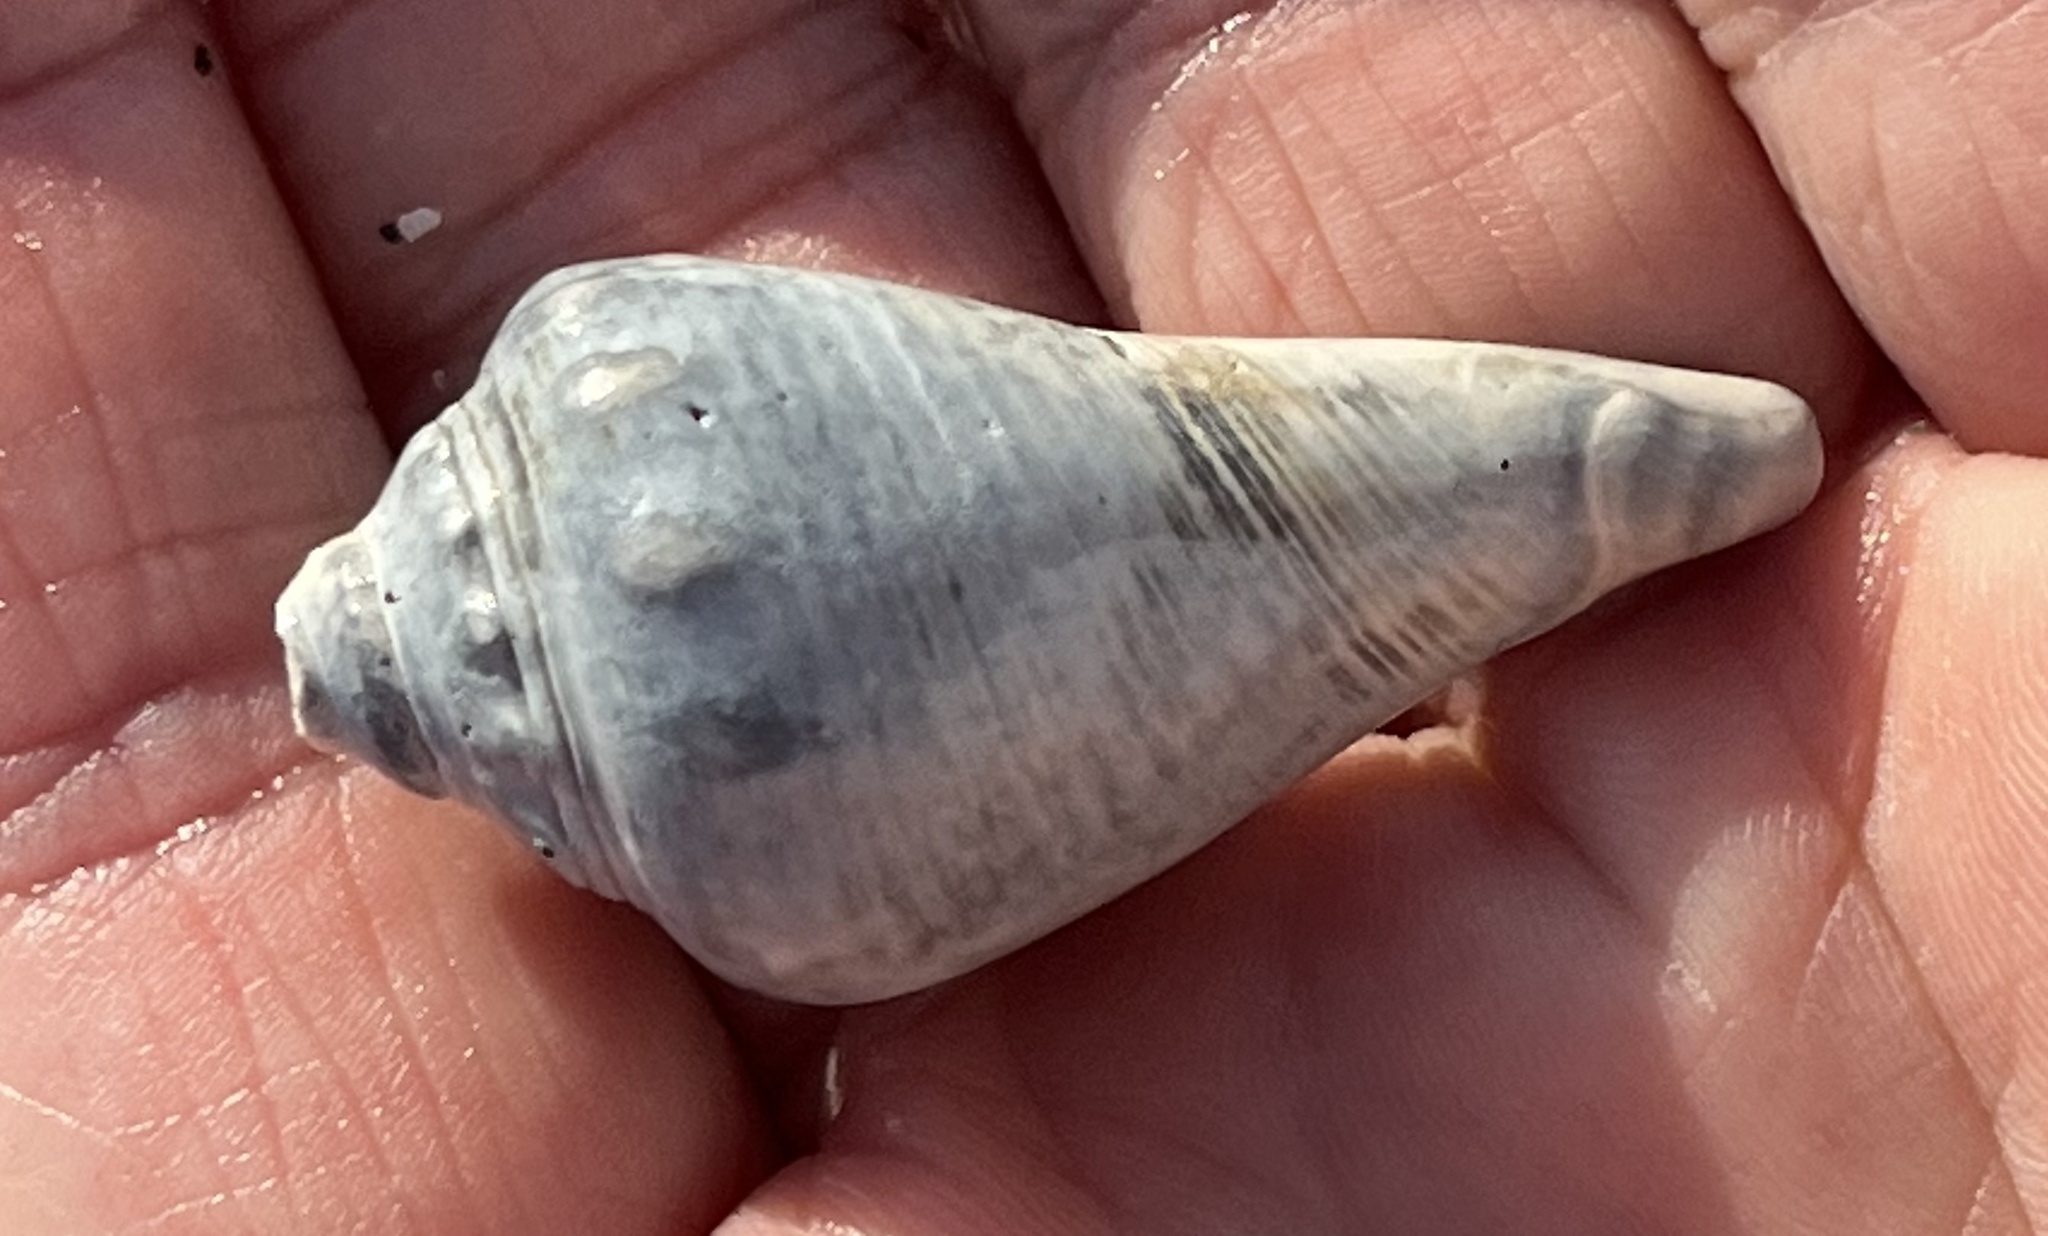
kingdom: Animalia
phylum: Mollusca
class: Gastropoda
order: Littorinimorpha
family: Strombidae
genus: Strombus
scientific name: Strombus alatus
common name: Florida fighting conch
